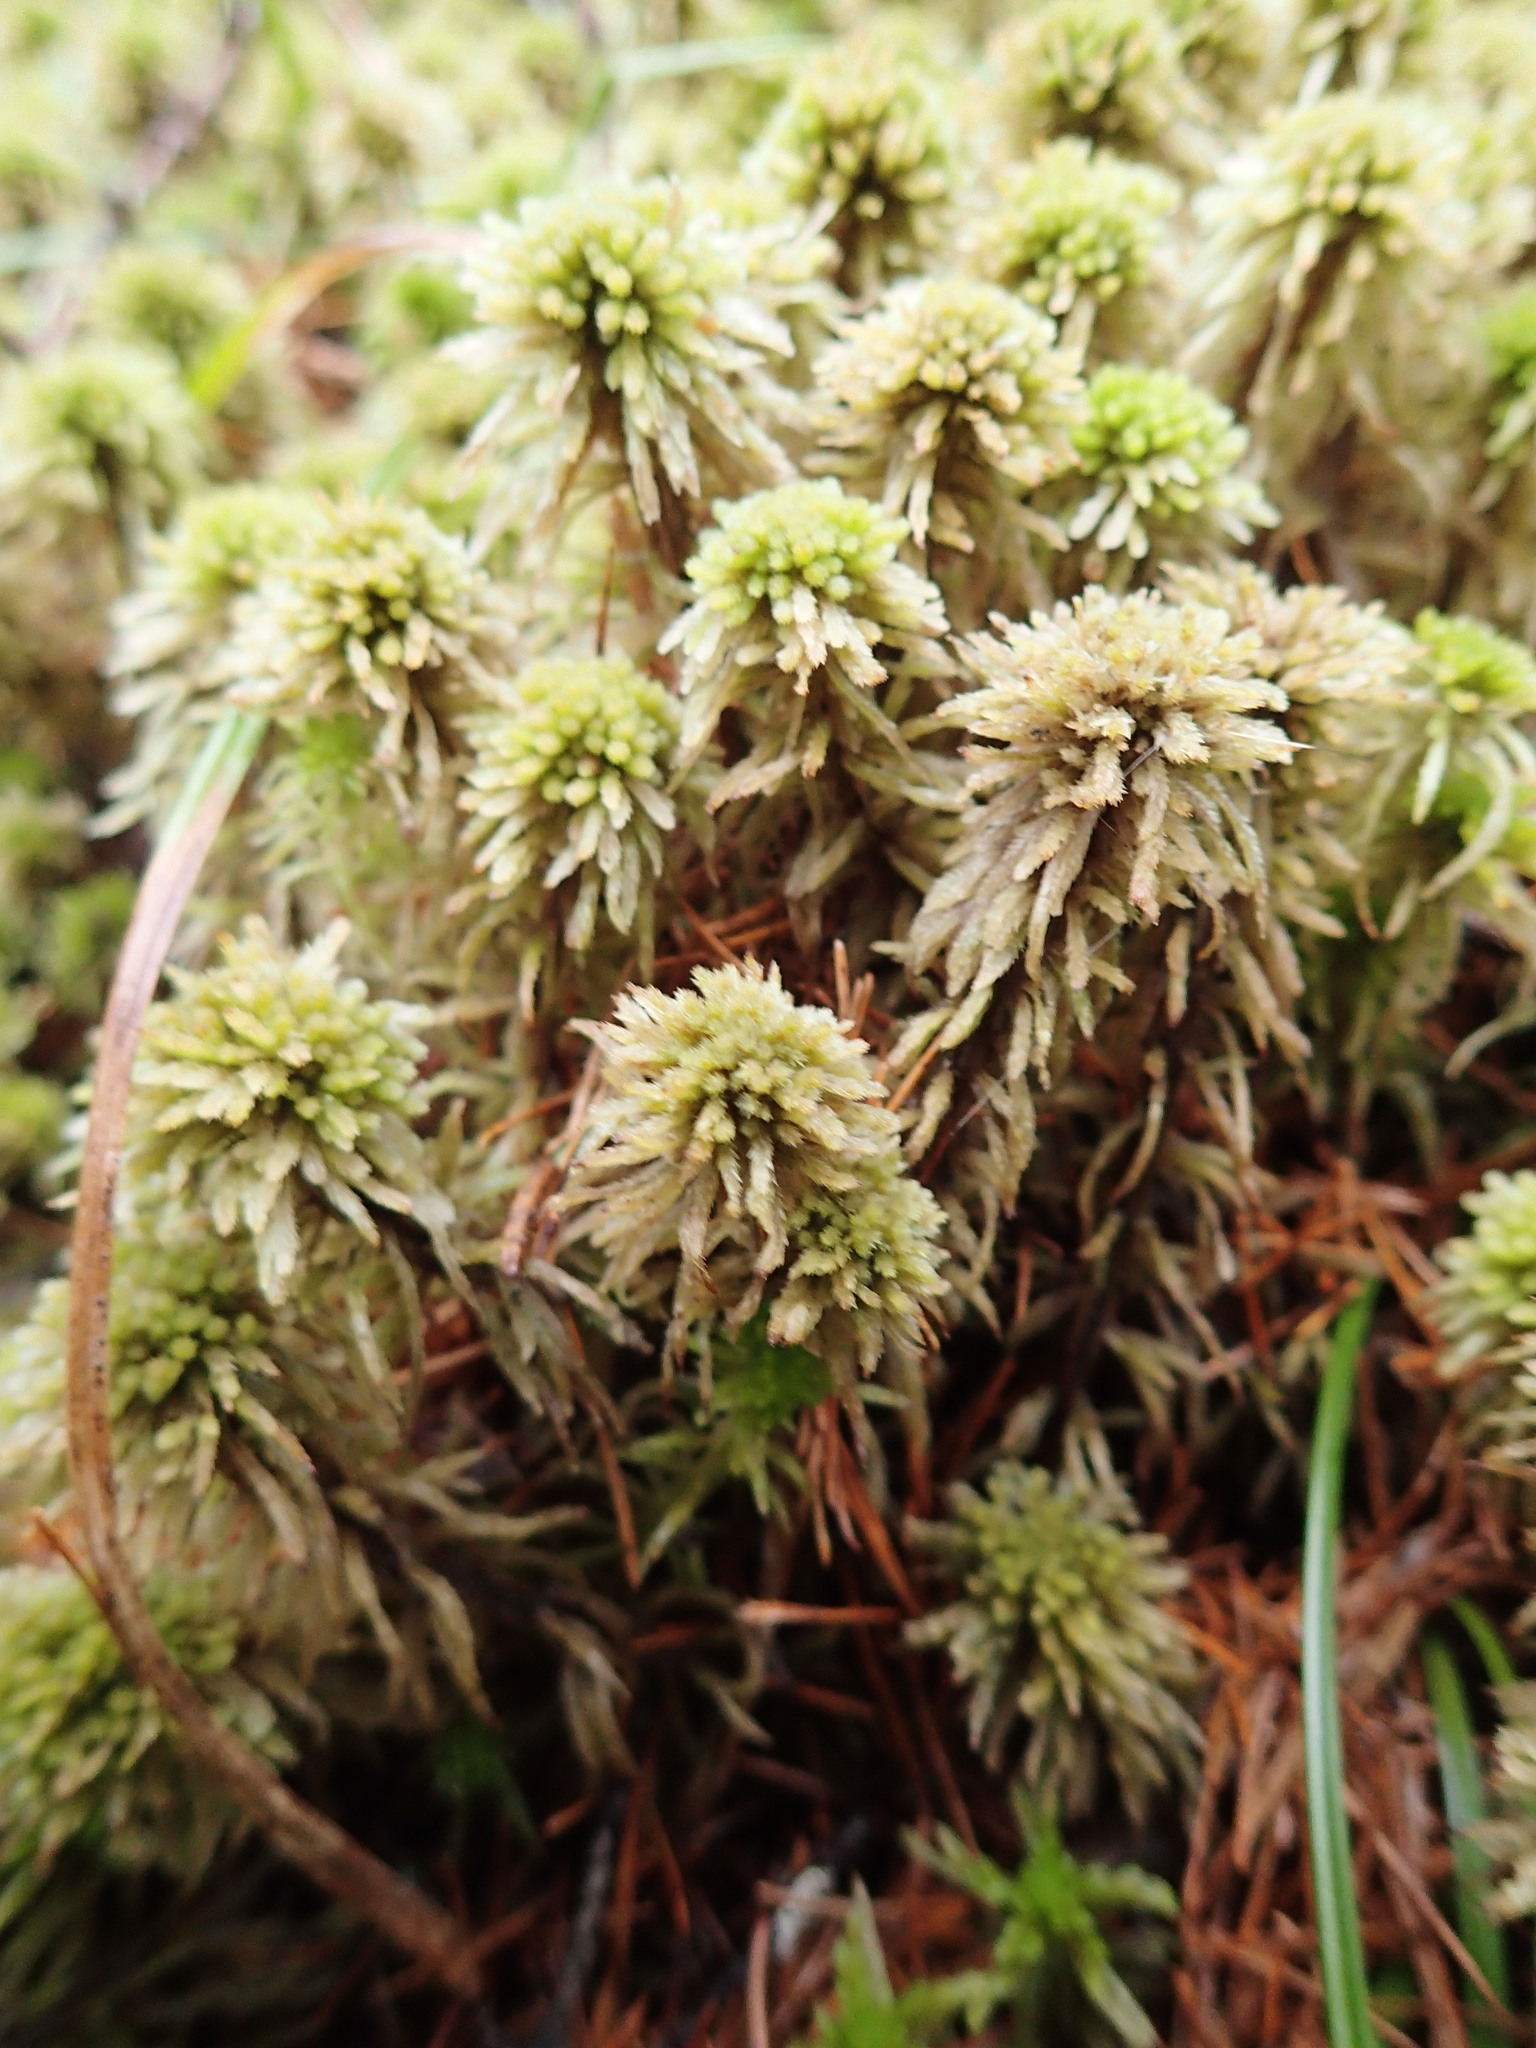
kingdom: Plantae
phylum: Bryophyta
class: Sphagnopsida
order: Sphagnales
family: Sphagnaceae
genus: Sphagnum
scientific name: Sphagnum wulfianum
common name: Wulf's peat moss
